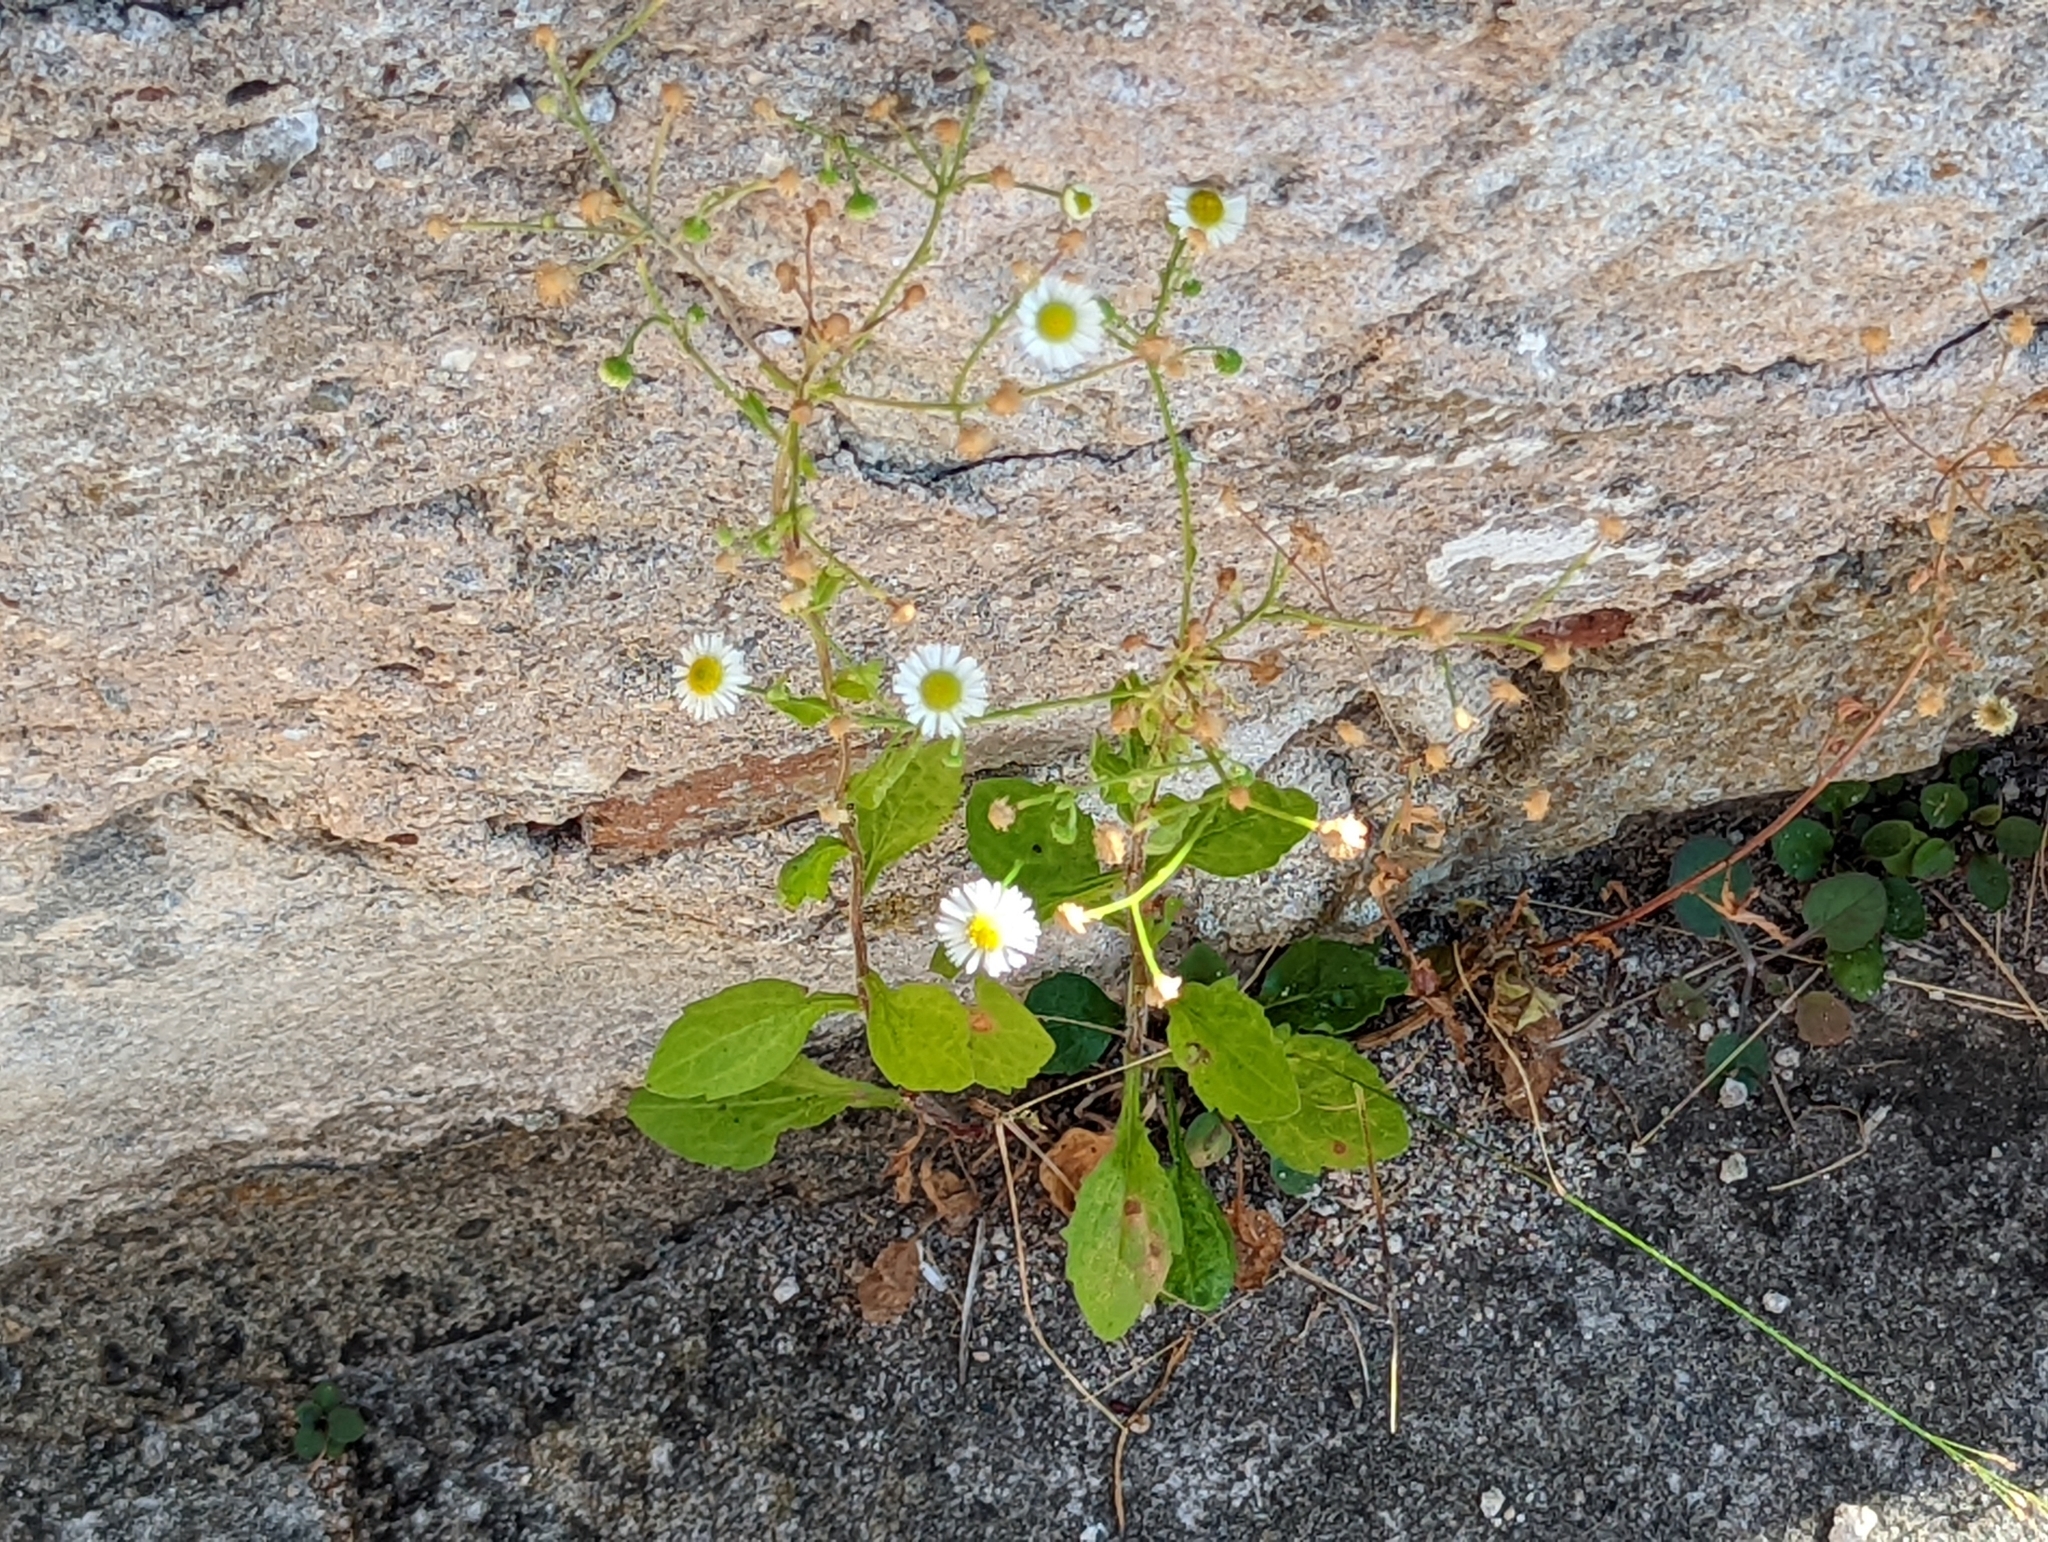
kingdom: Plantae
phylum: Tracheophyta
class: Magnoliopsida
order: Asterales
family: Asteraceae
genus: Erigeron
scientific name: Erigeron annuus
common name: Tall fleabane
